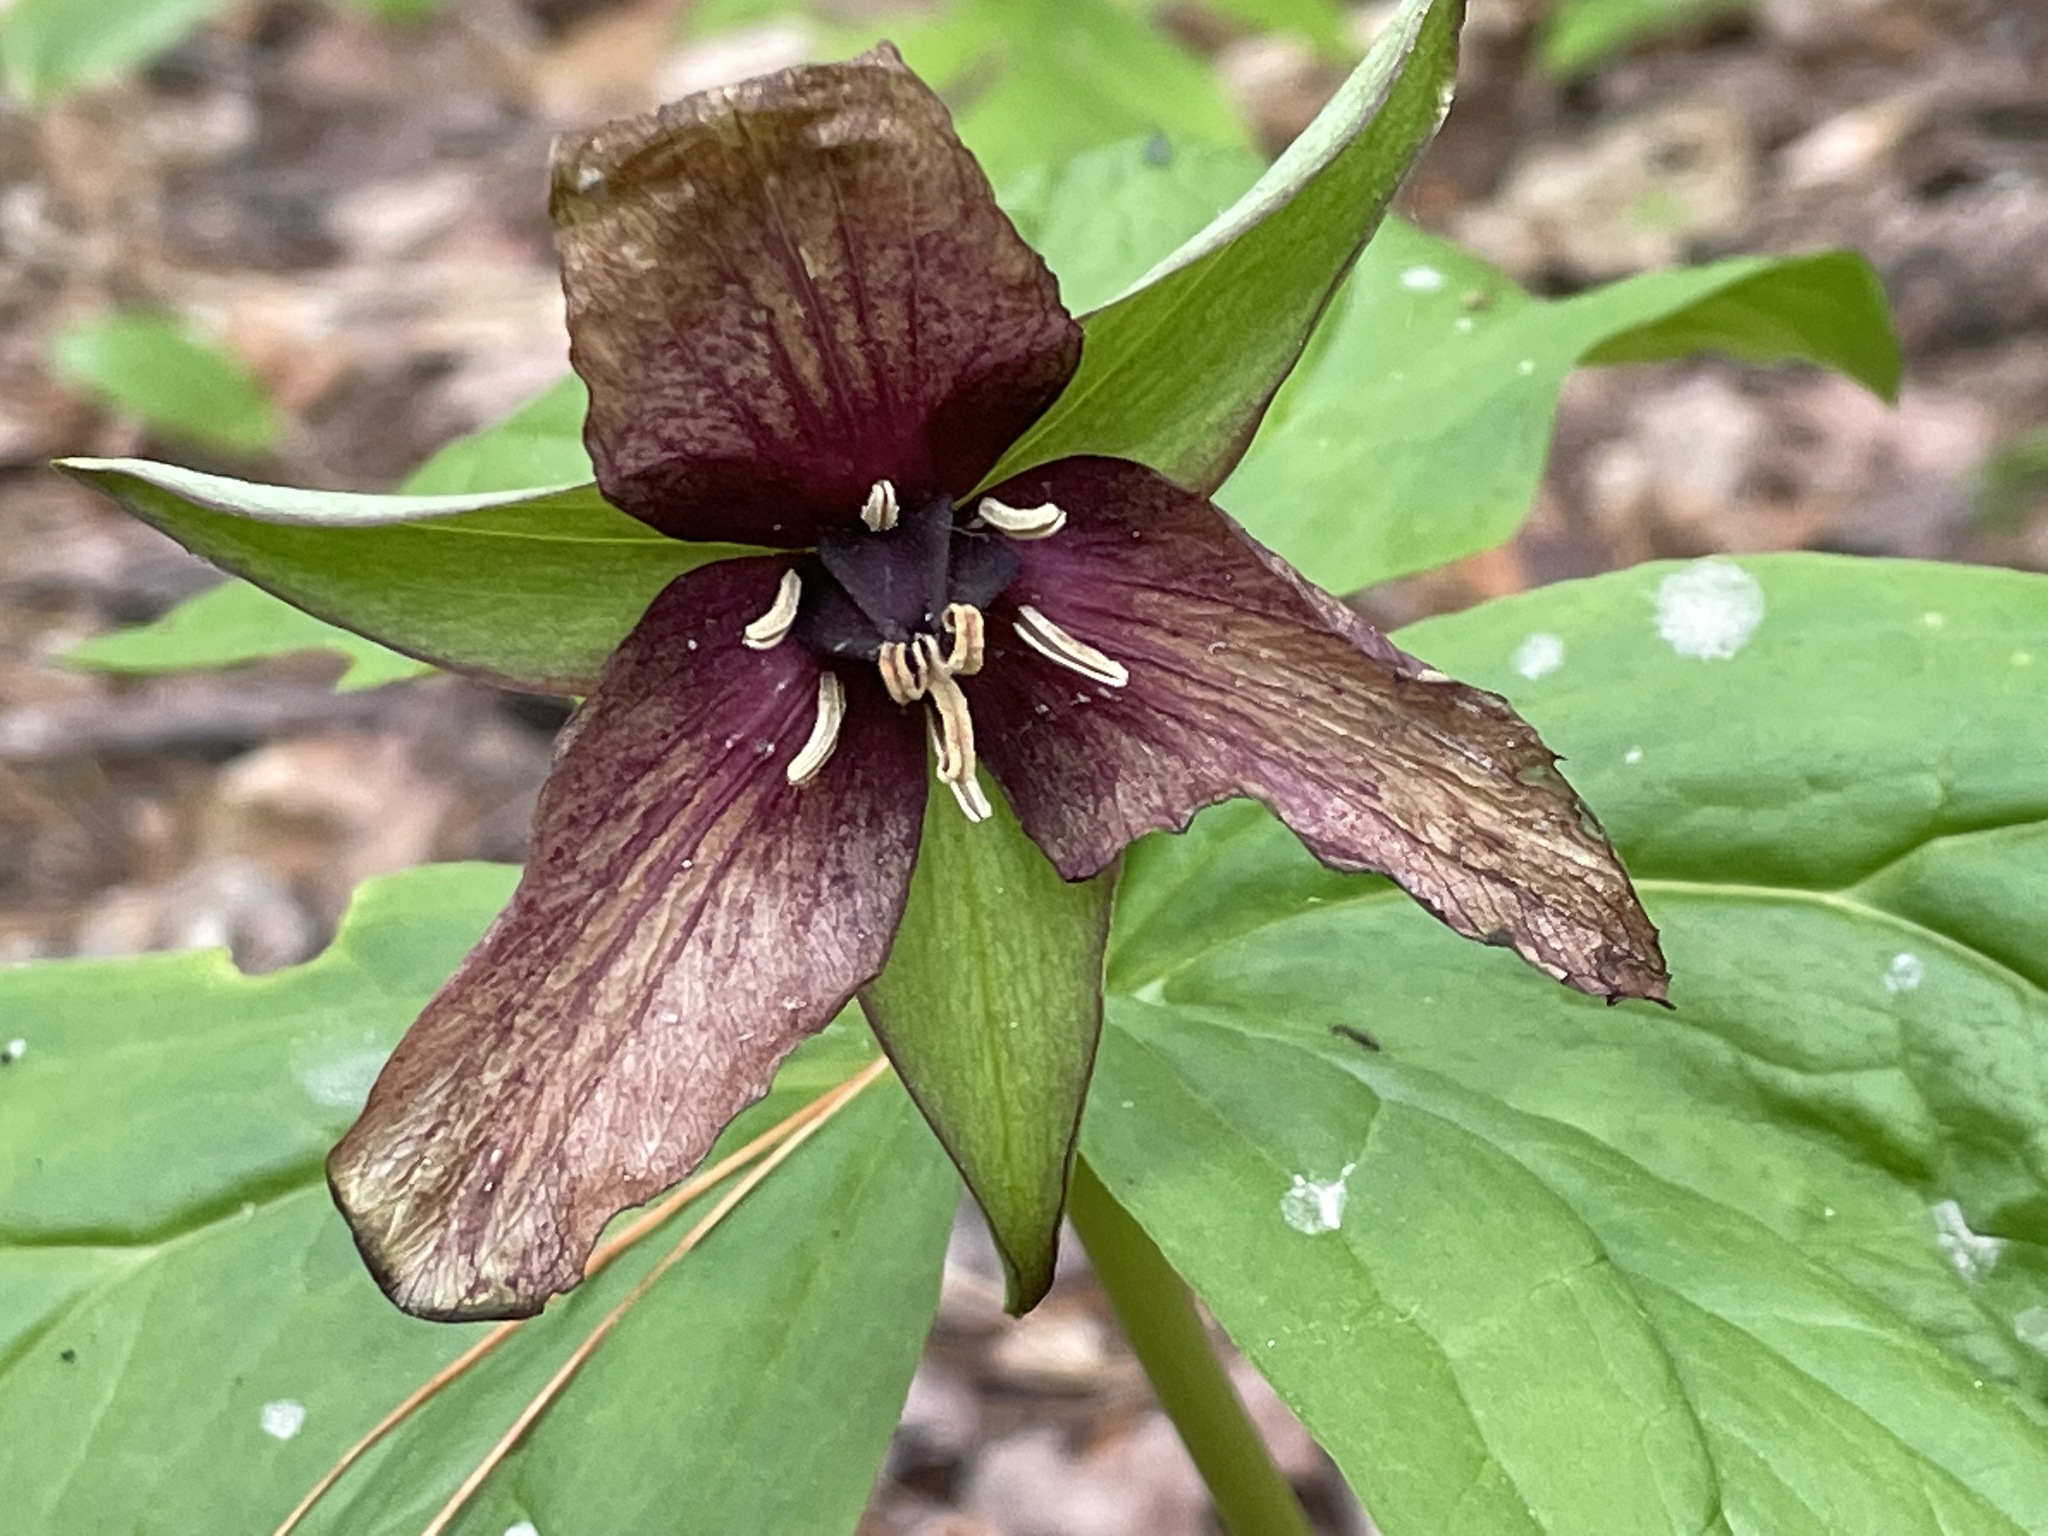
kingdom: Plantae
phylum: Tracheophyta
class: Liliopsida
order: Liliales
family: Melanthiaceae
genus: Trillium
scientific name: Trillium erectum
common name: Purple trillium
